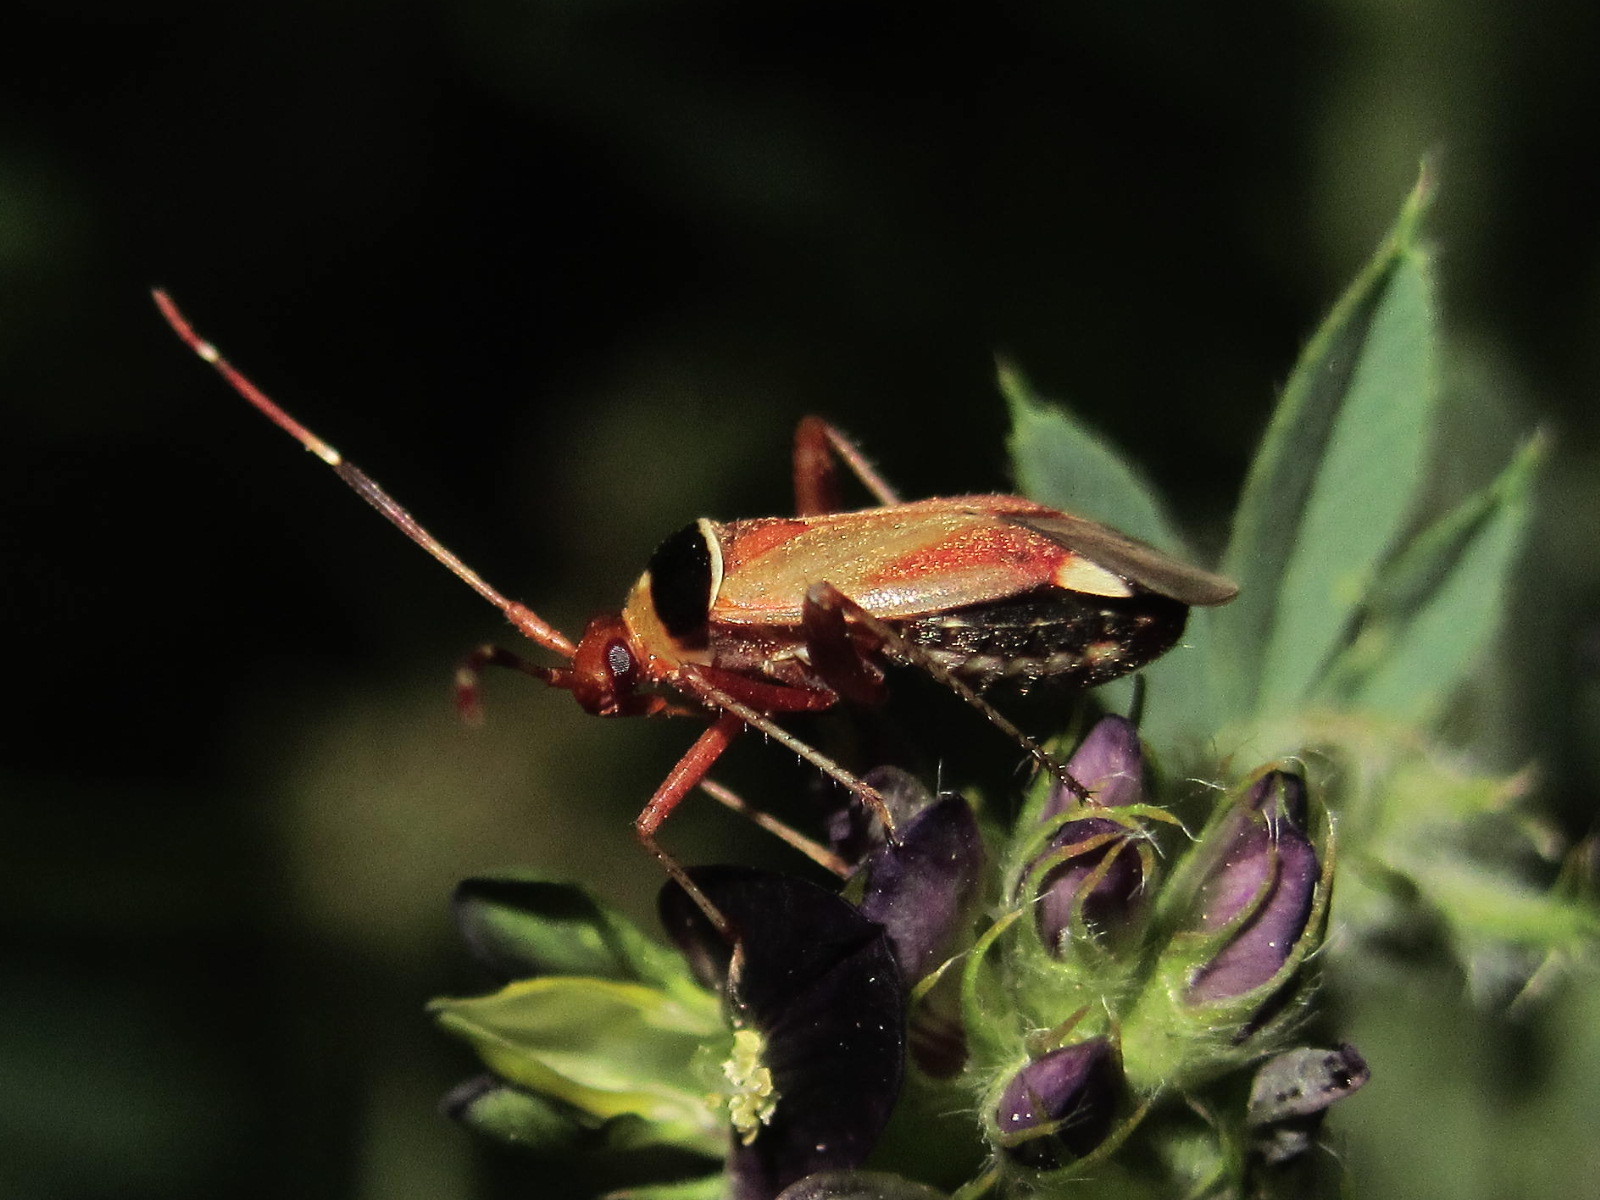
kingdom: Animalia
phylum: Arthropoda
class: Insecta
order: Hemiptera
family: Miridae
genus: Adelphocoris
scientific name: Adelphocoris vandalicus
